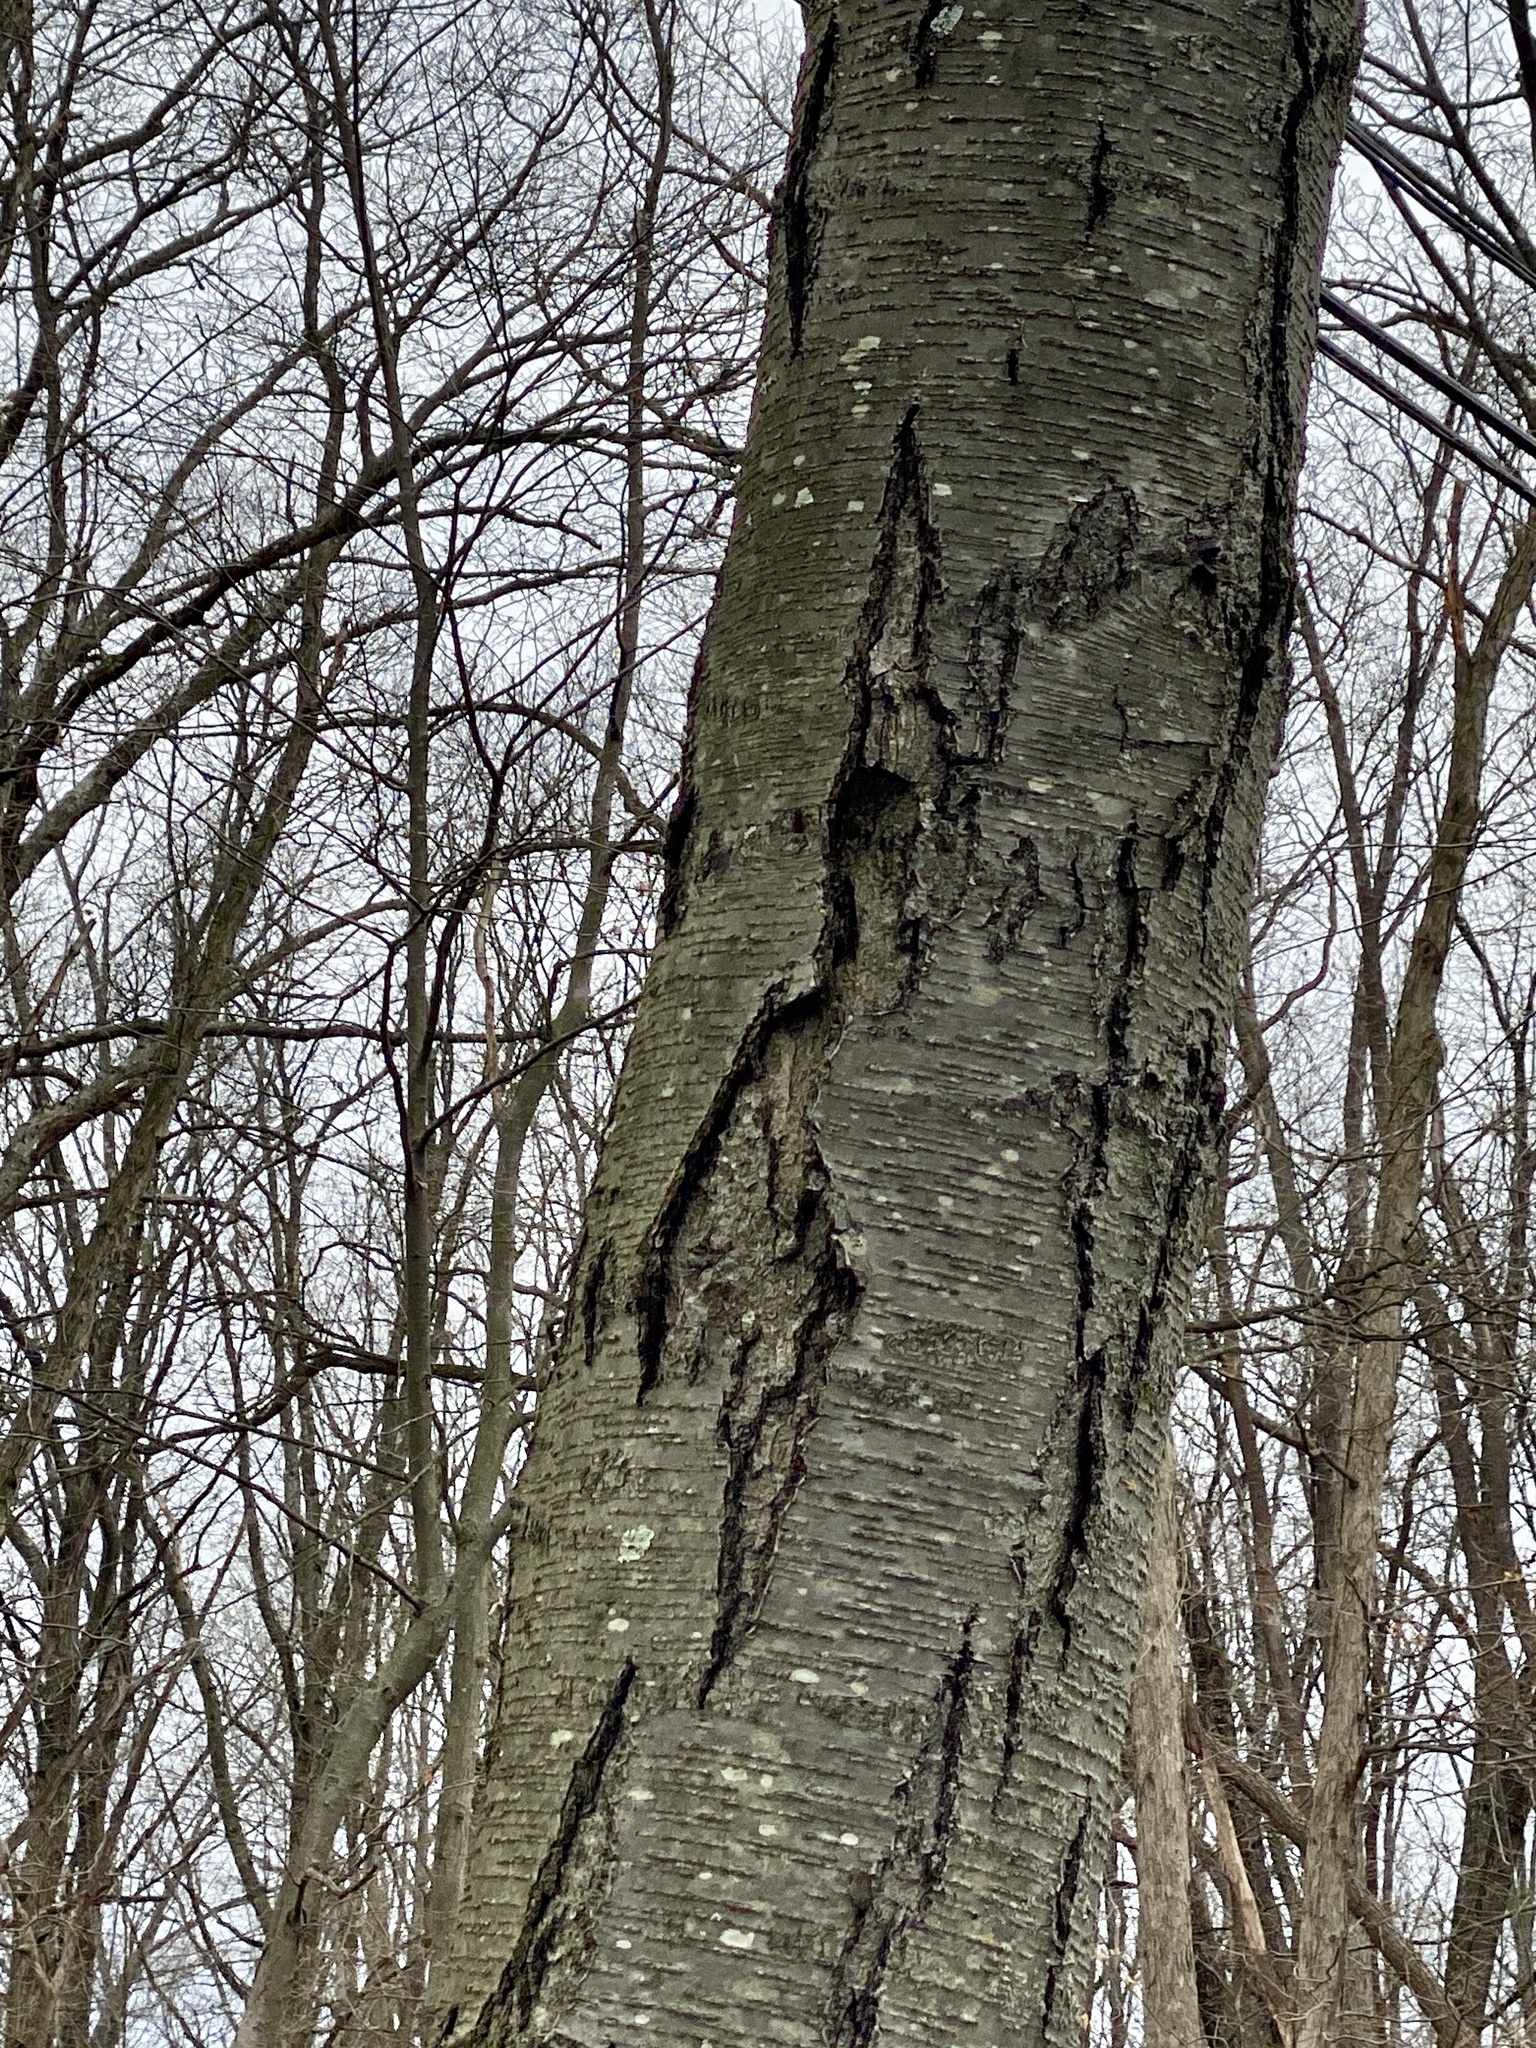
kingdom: Plantae
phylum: Tracheophyta
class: Magnoliopsida
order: Fagales
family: Betulaceae
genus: Betula
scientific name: Betula lenta
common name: Black birch
